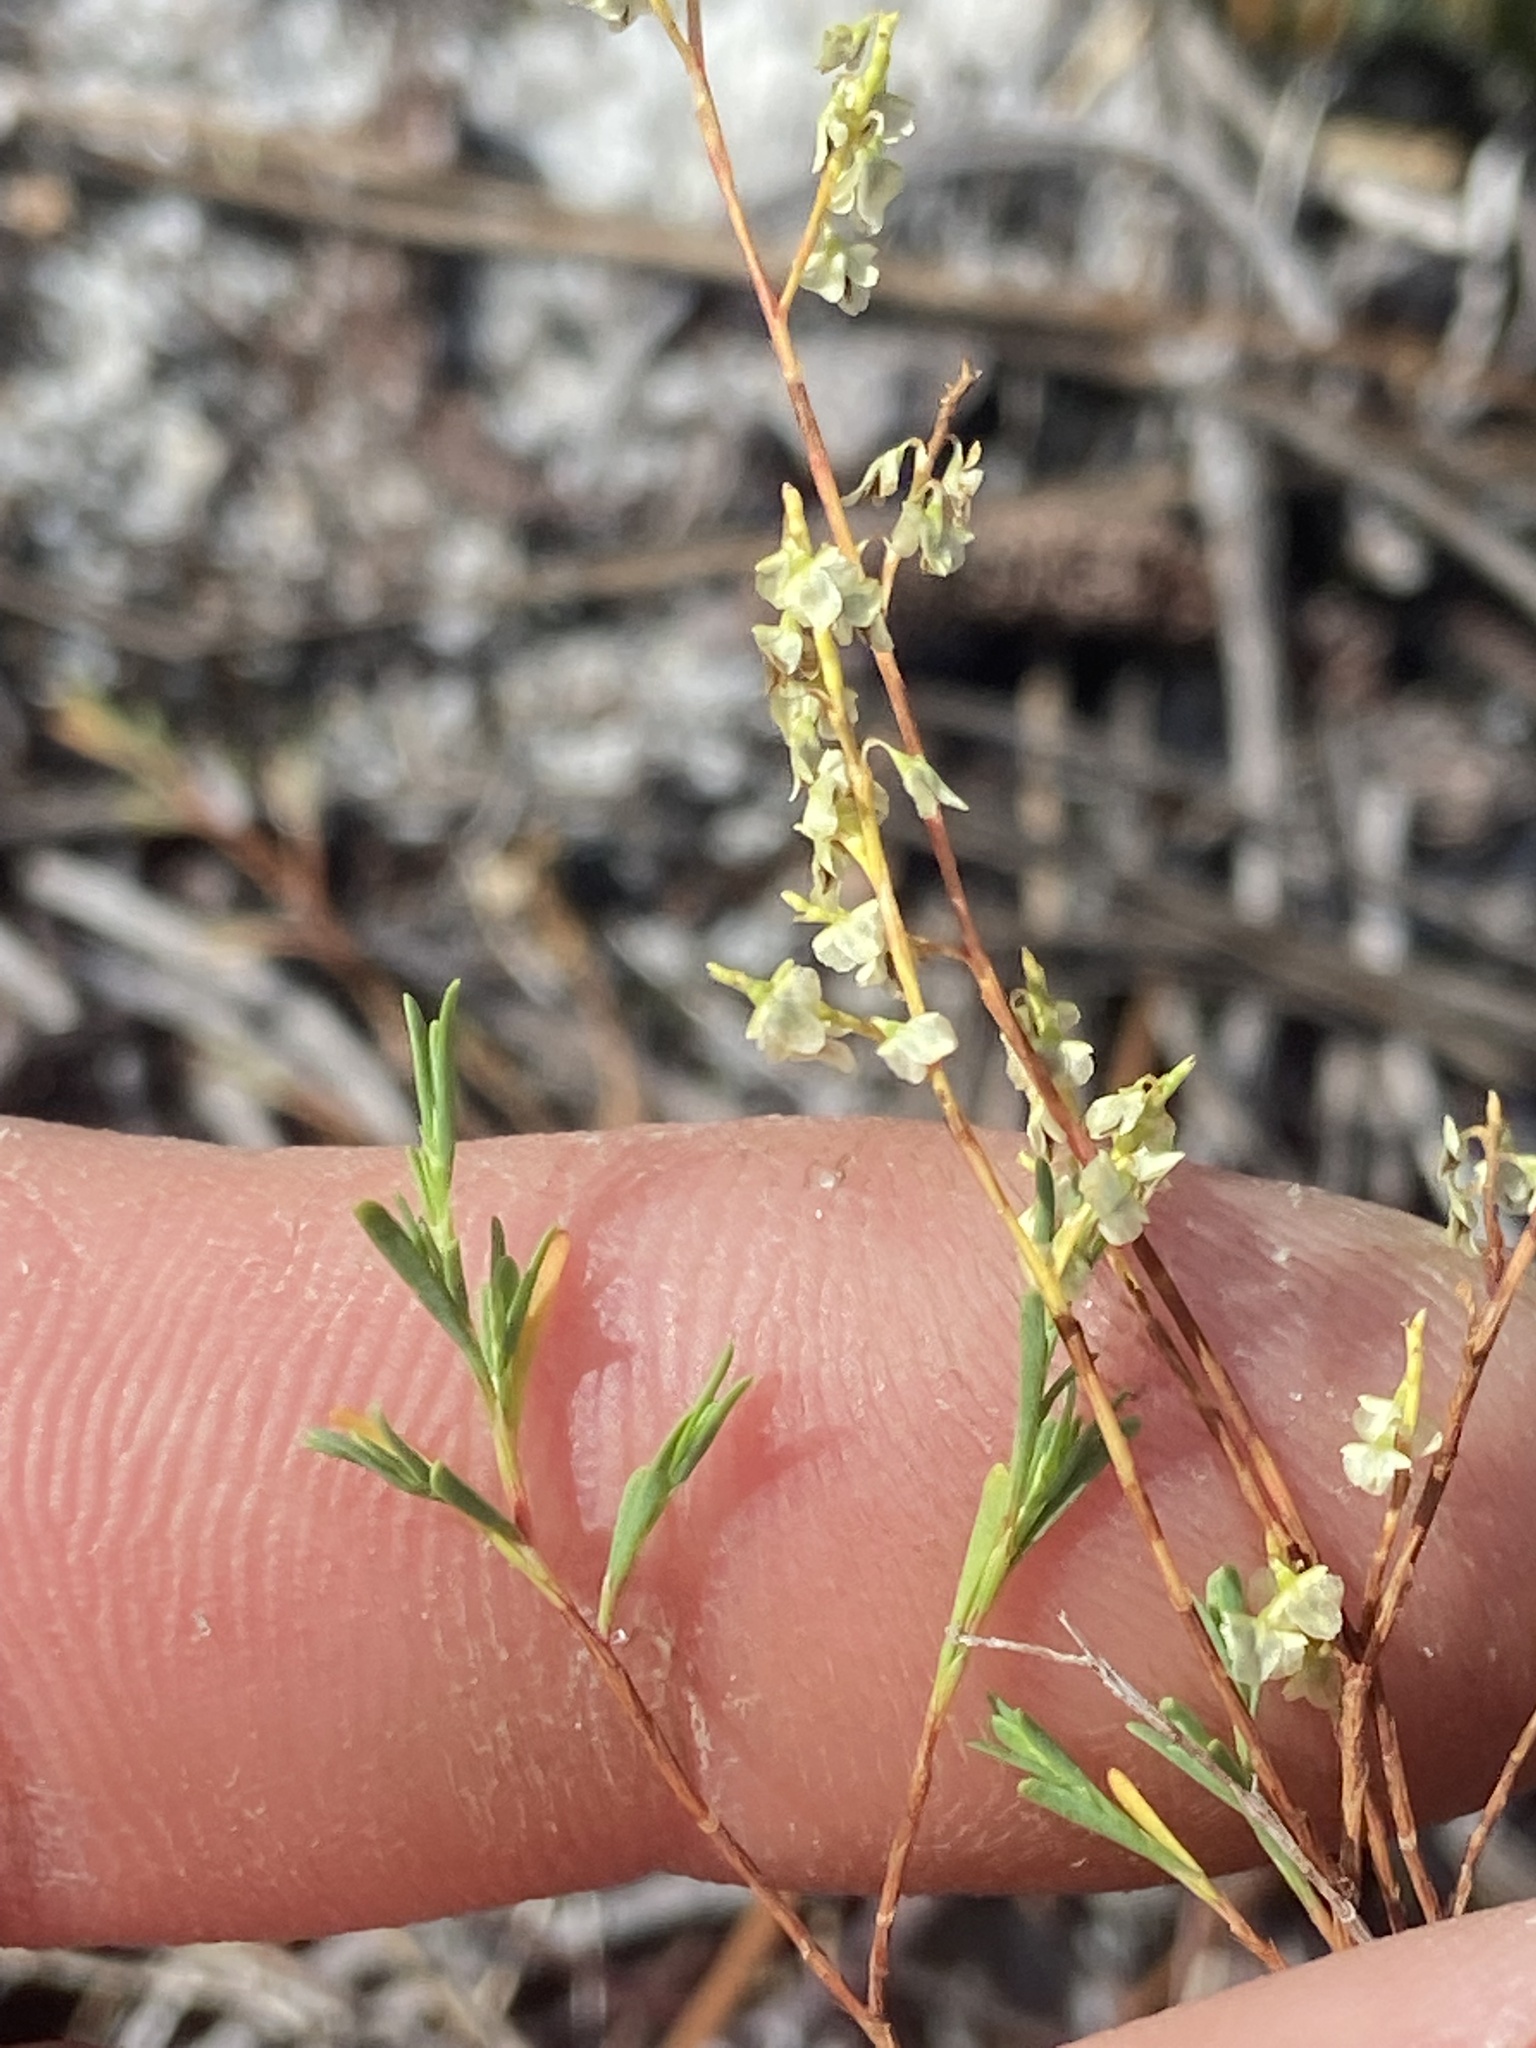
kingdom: Plantae
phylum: Tracheophyta
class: Magnoliopsida
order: Caryophyllales
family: Polygonaceae
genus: Polygonella
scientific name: Polygonella polygama
